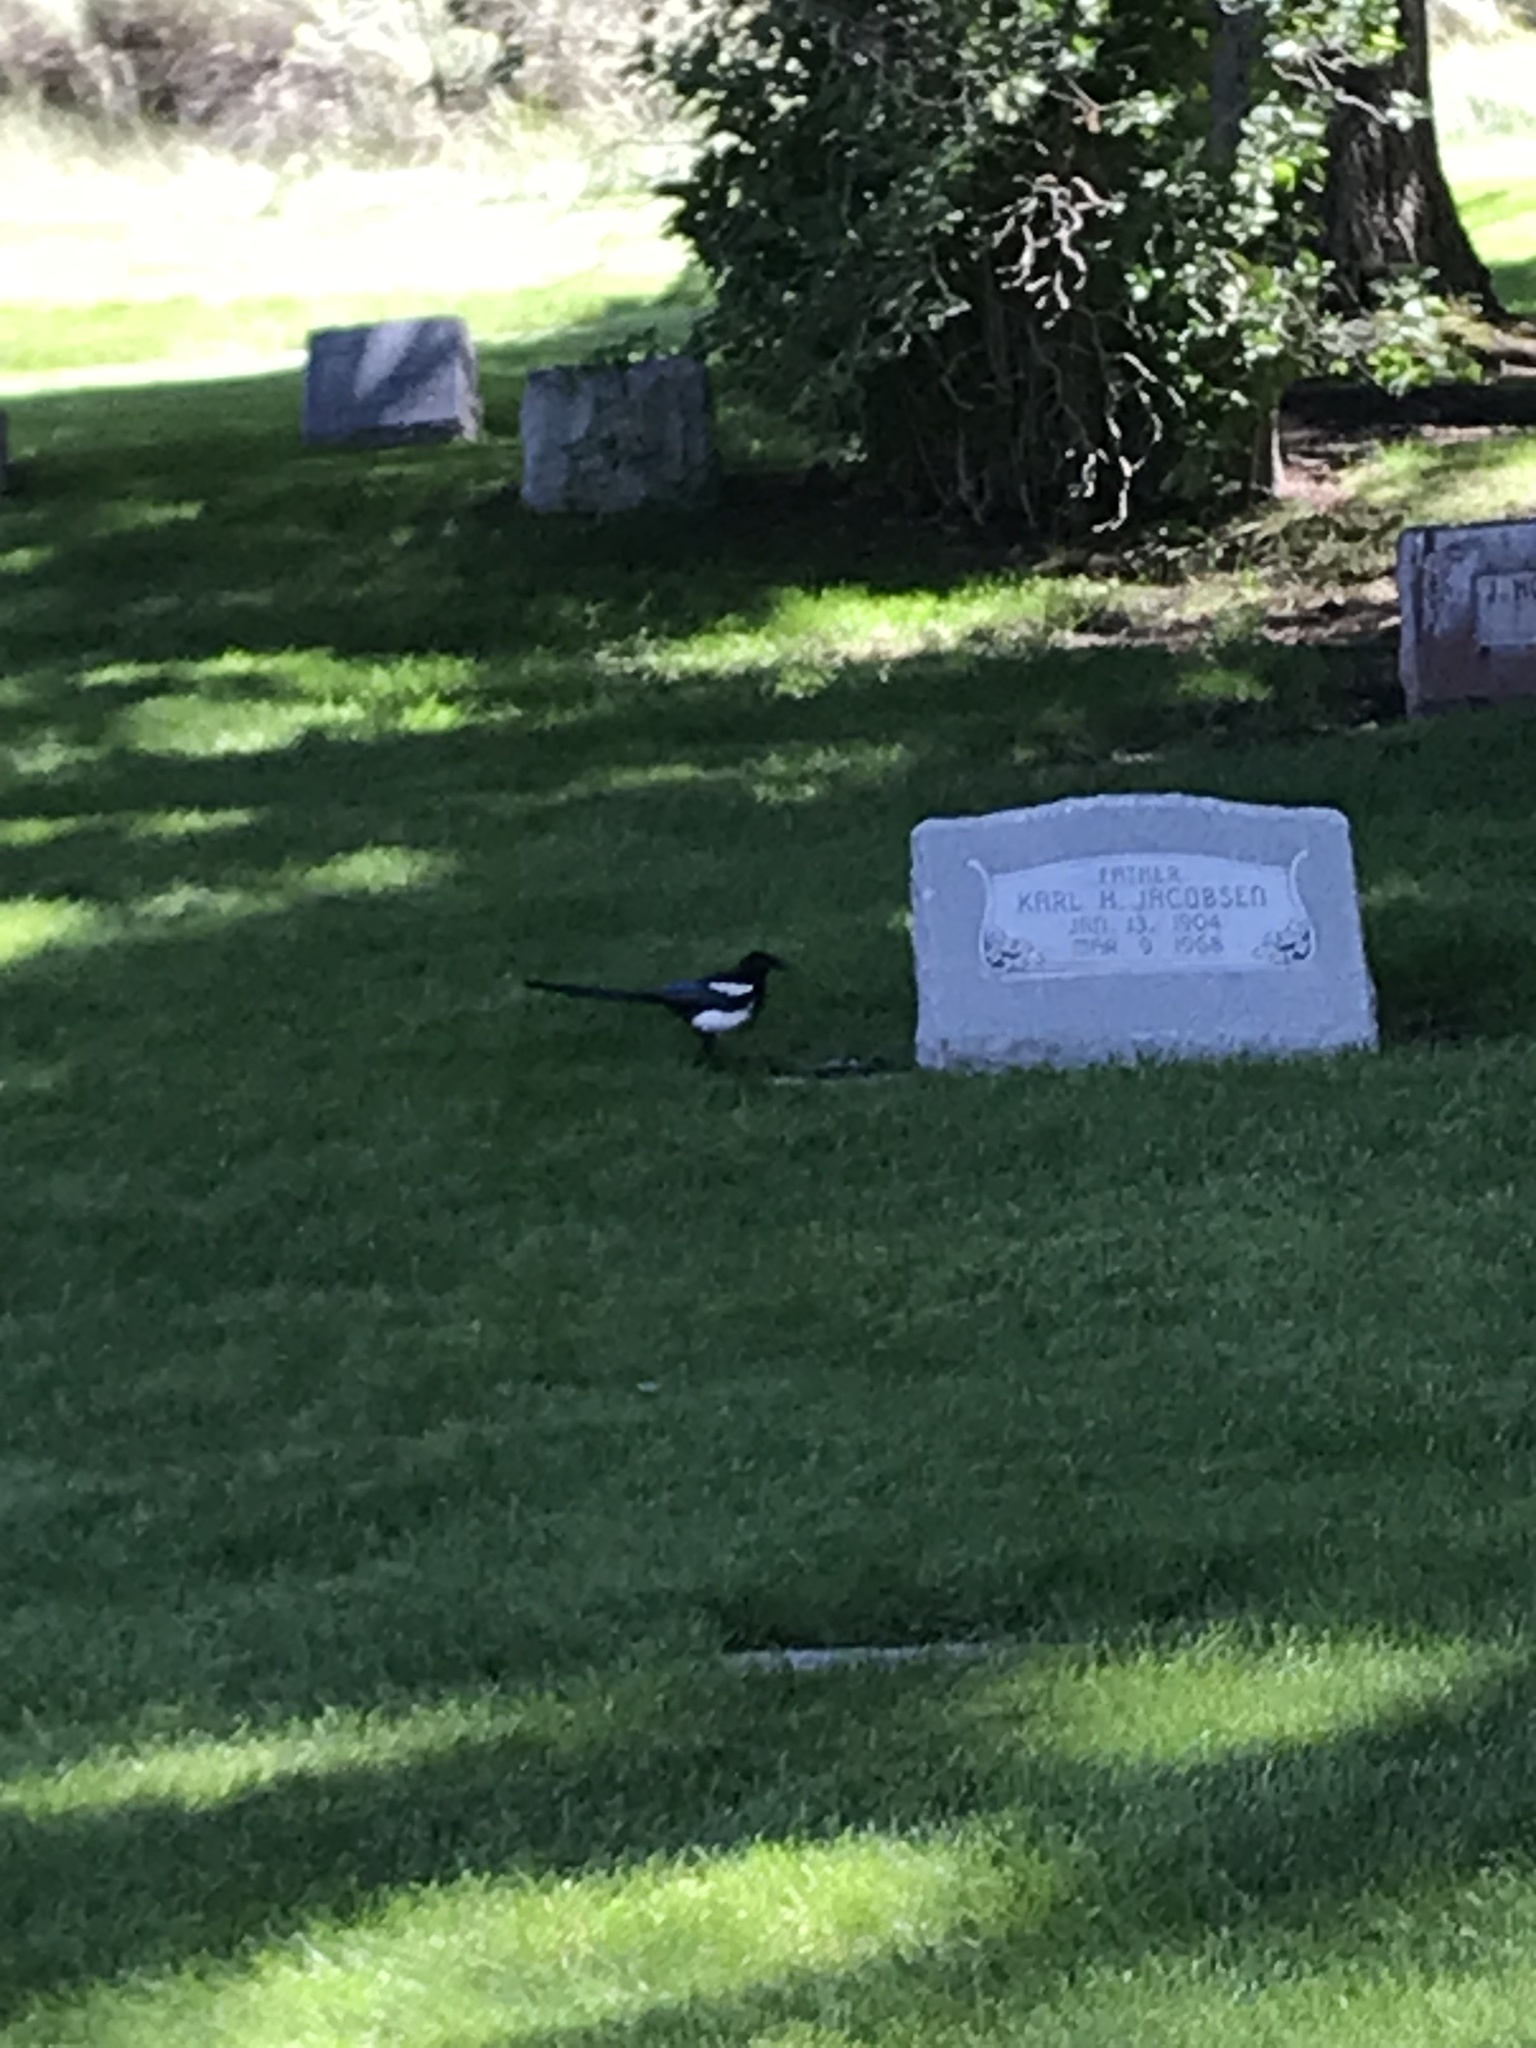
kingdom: Animalia
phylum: Chordata
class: Aves
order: Passeriformes
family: Corvidae
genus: Pica
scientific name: Pica hudsonia
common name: Black-billed magpie
